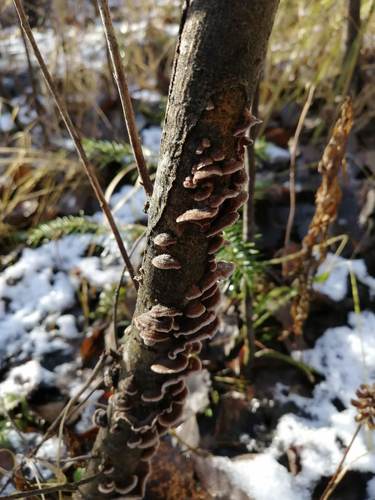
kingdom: Fungi
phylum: Basidiomycota
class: Agaricomycetes
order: Agaricales
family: Cyphellaceae
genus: Chondrostereum
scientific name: Chondrostereum purpureum
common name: Silver leaf disease
